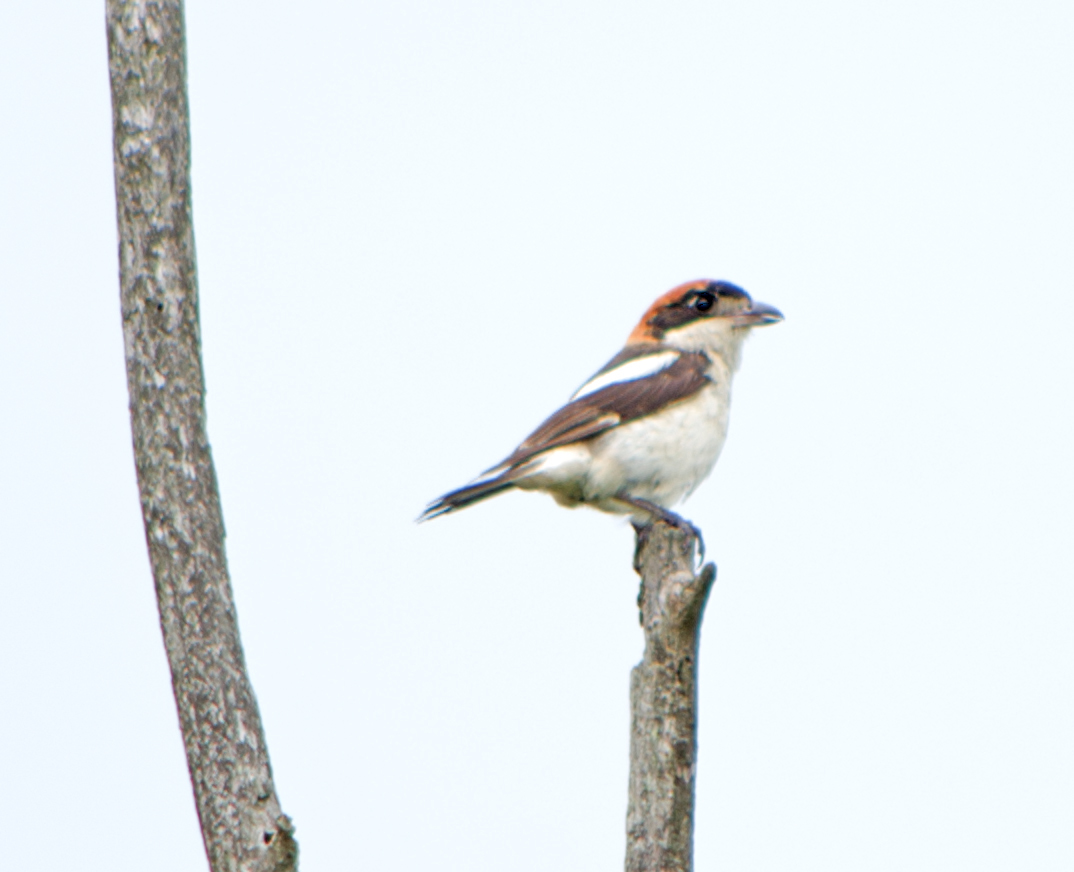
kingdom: Animalia
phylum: Chordata
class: Aves
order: Passeriformes
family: Laniidae
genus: Lanius
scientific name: Lanius senator
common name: Woodchat shrike
